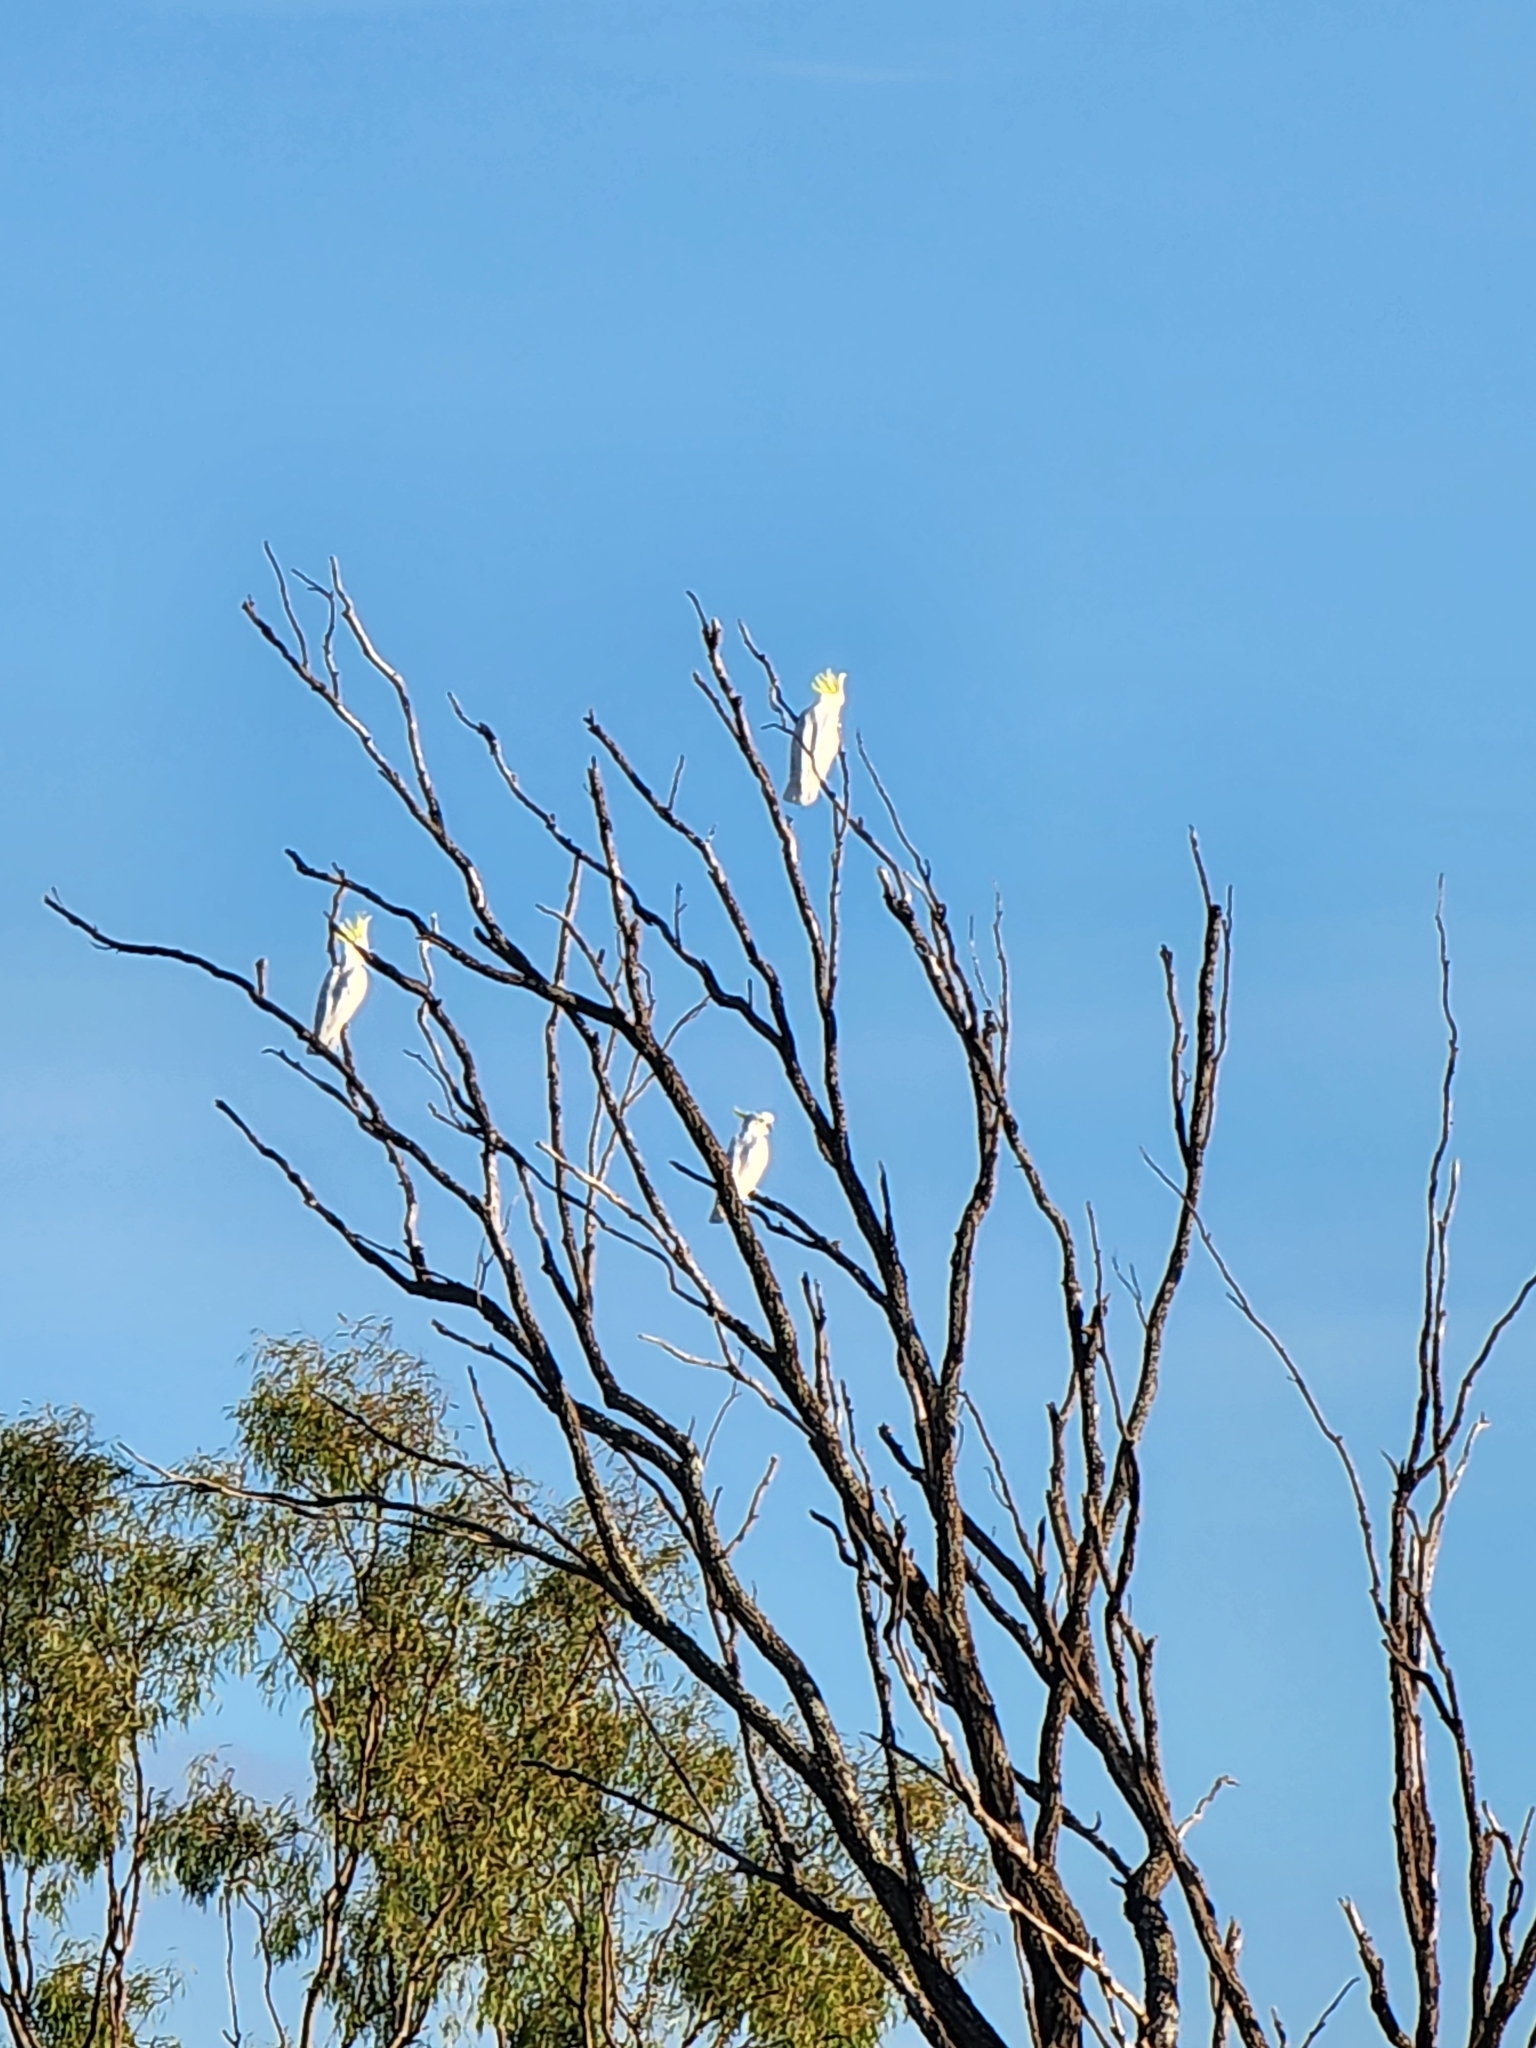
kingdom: Animalia
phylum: Chordata
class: Aves
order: Psittaciformes
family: Psittacidae
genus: Cacatua
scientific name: Cacatua galerita
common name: Sulphur-crested cockatoo
